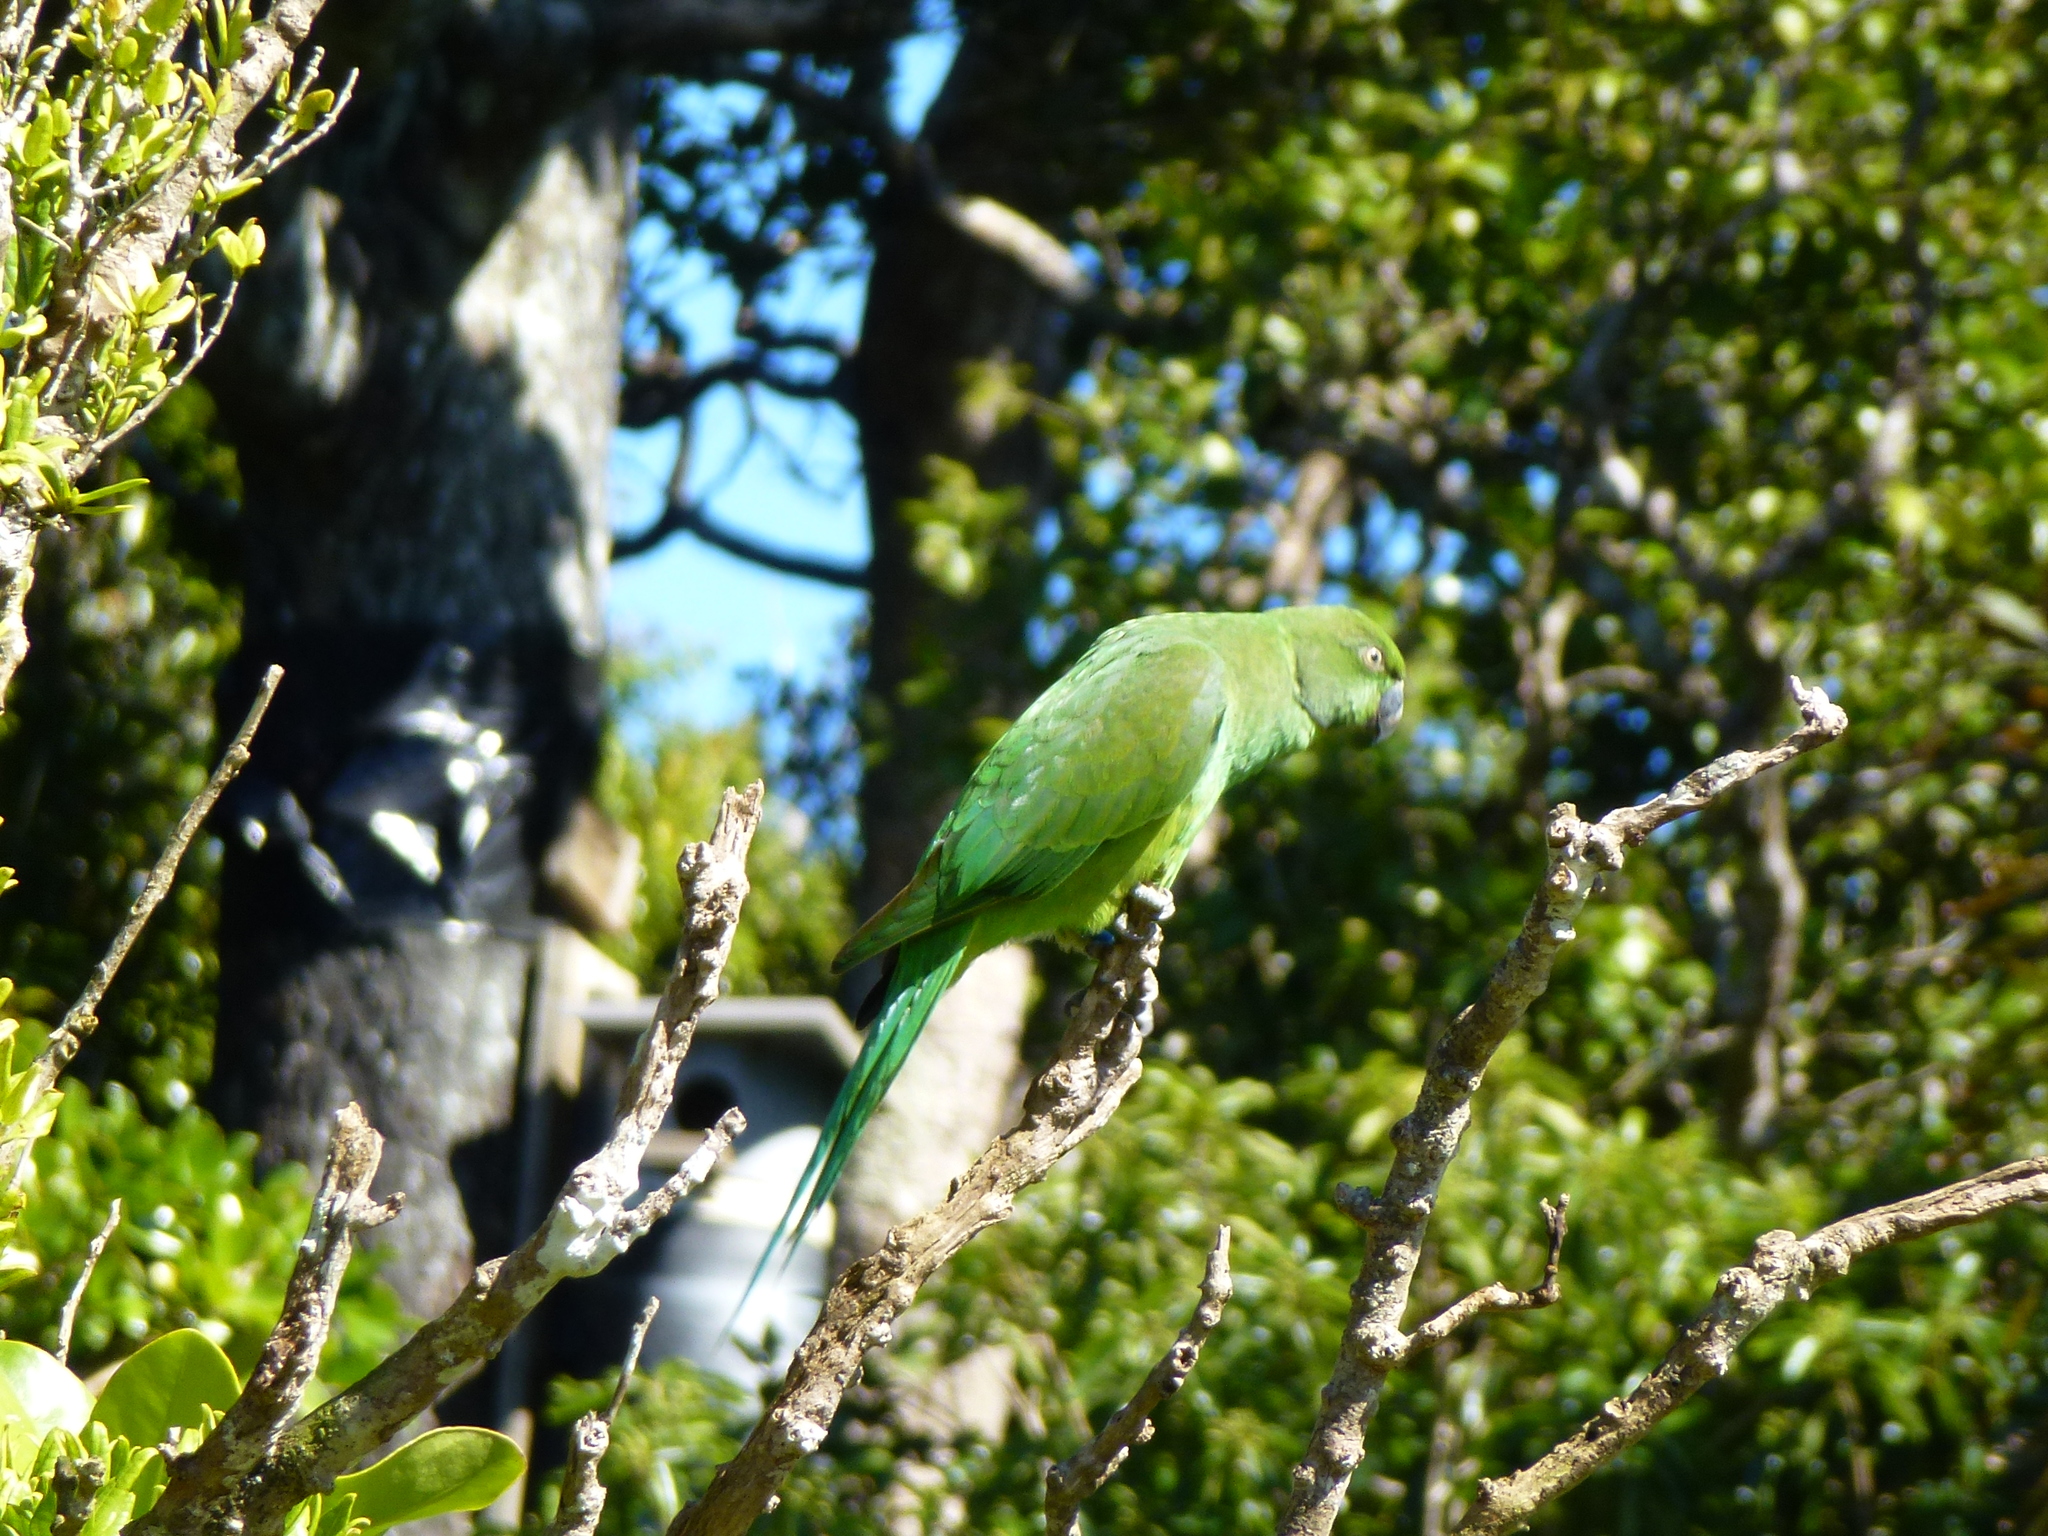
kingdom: Animalia
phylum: Chordata
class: Aves
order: Psittaciformes
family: Psittacidae
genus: Psittacula
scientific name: Psittacula echo
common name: Mauritius parakeet
